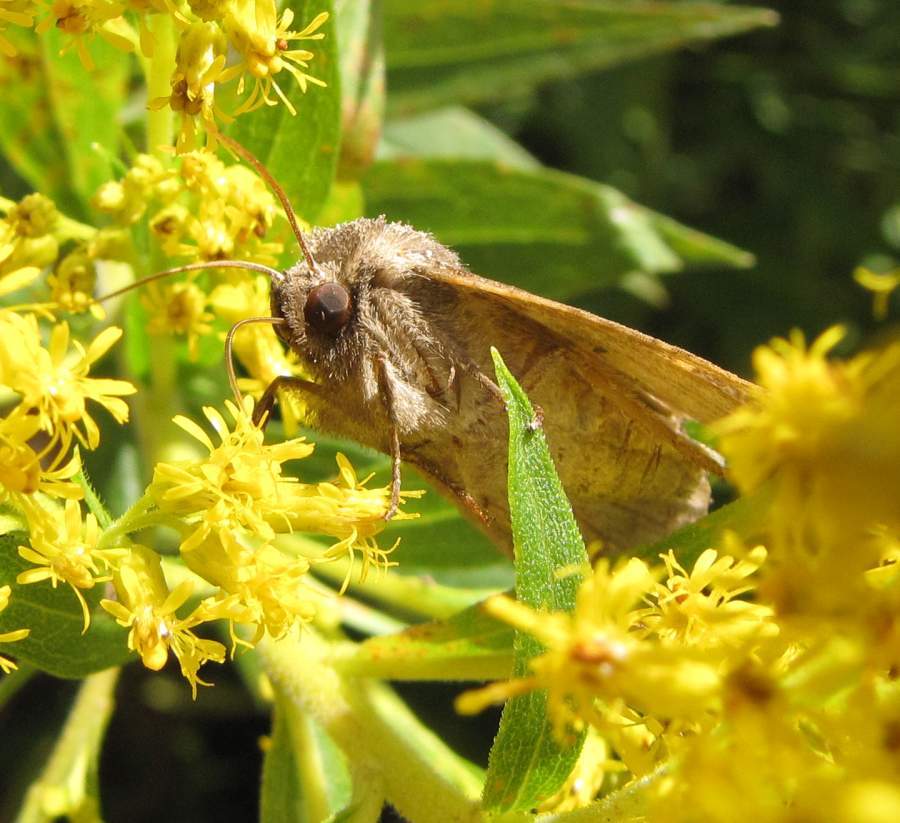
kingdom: Animalia
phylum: Arthropoda
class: Insecta
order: Lepidoptera
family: Noctuidae
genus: Papaipema
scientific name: Papaipema nelita
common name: Coneflower borer moth
